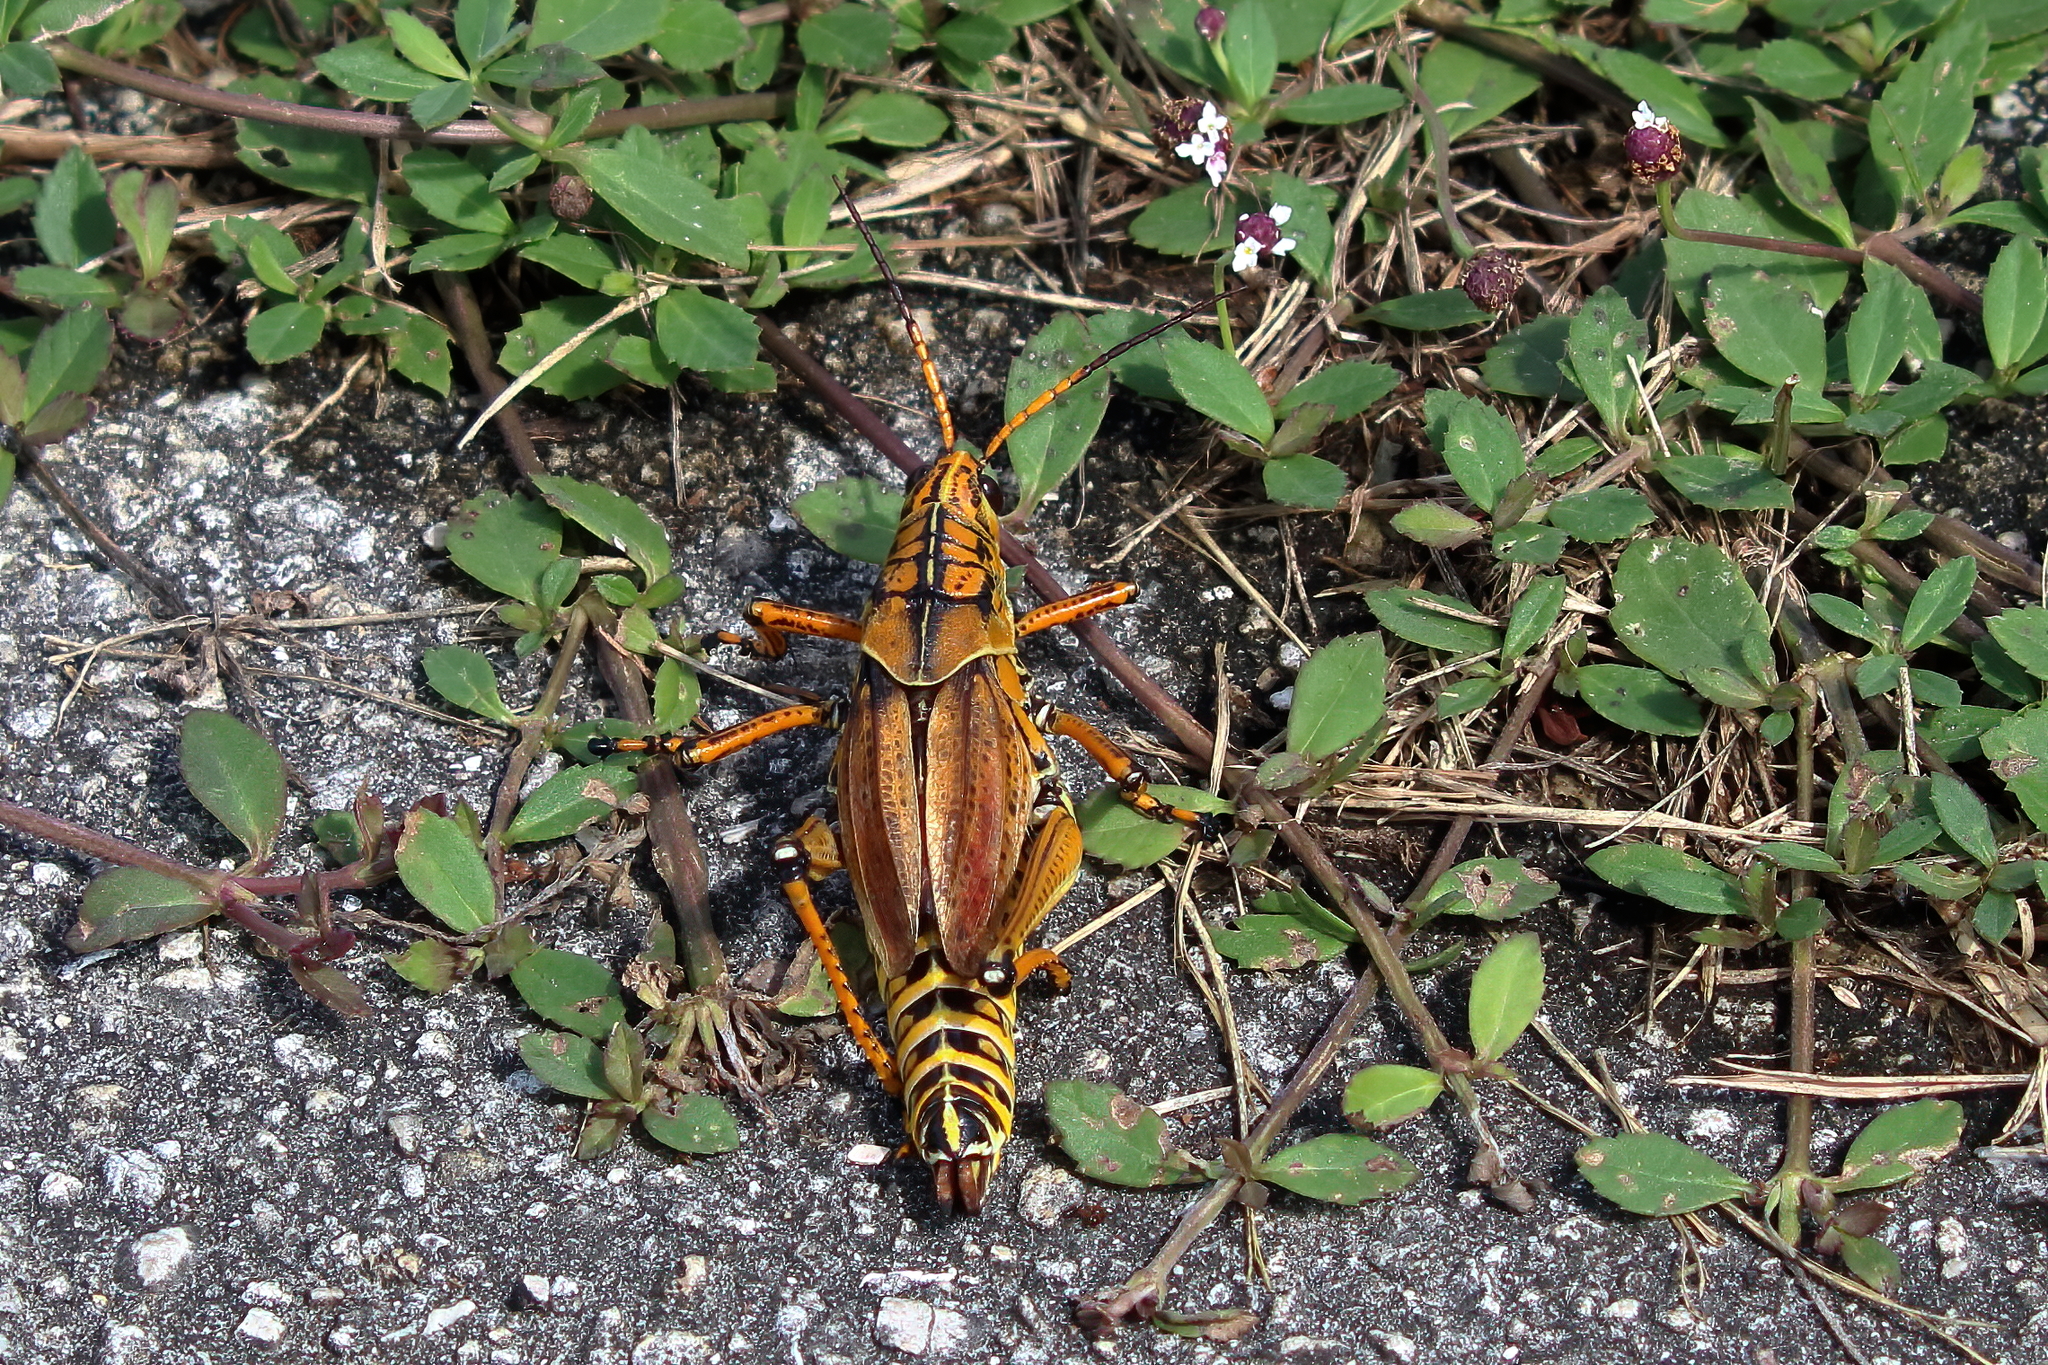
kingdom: Animalia
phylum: Arthropoda
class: Insecta
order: Orthoptera
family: Romaleidae
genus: Romalea
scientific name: Romalea microptera
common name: Eastern lubber grasshopper
